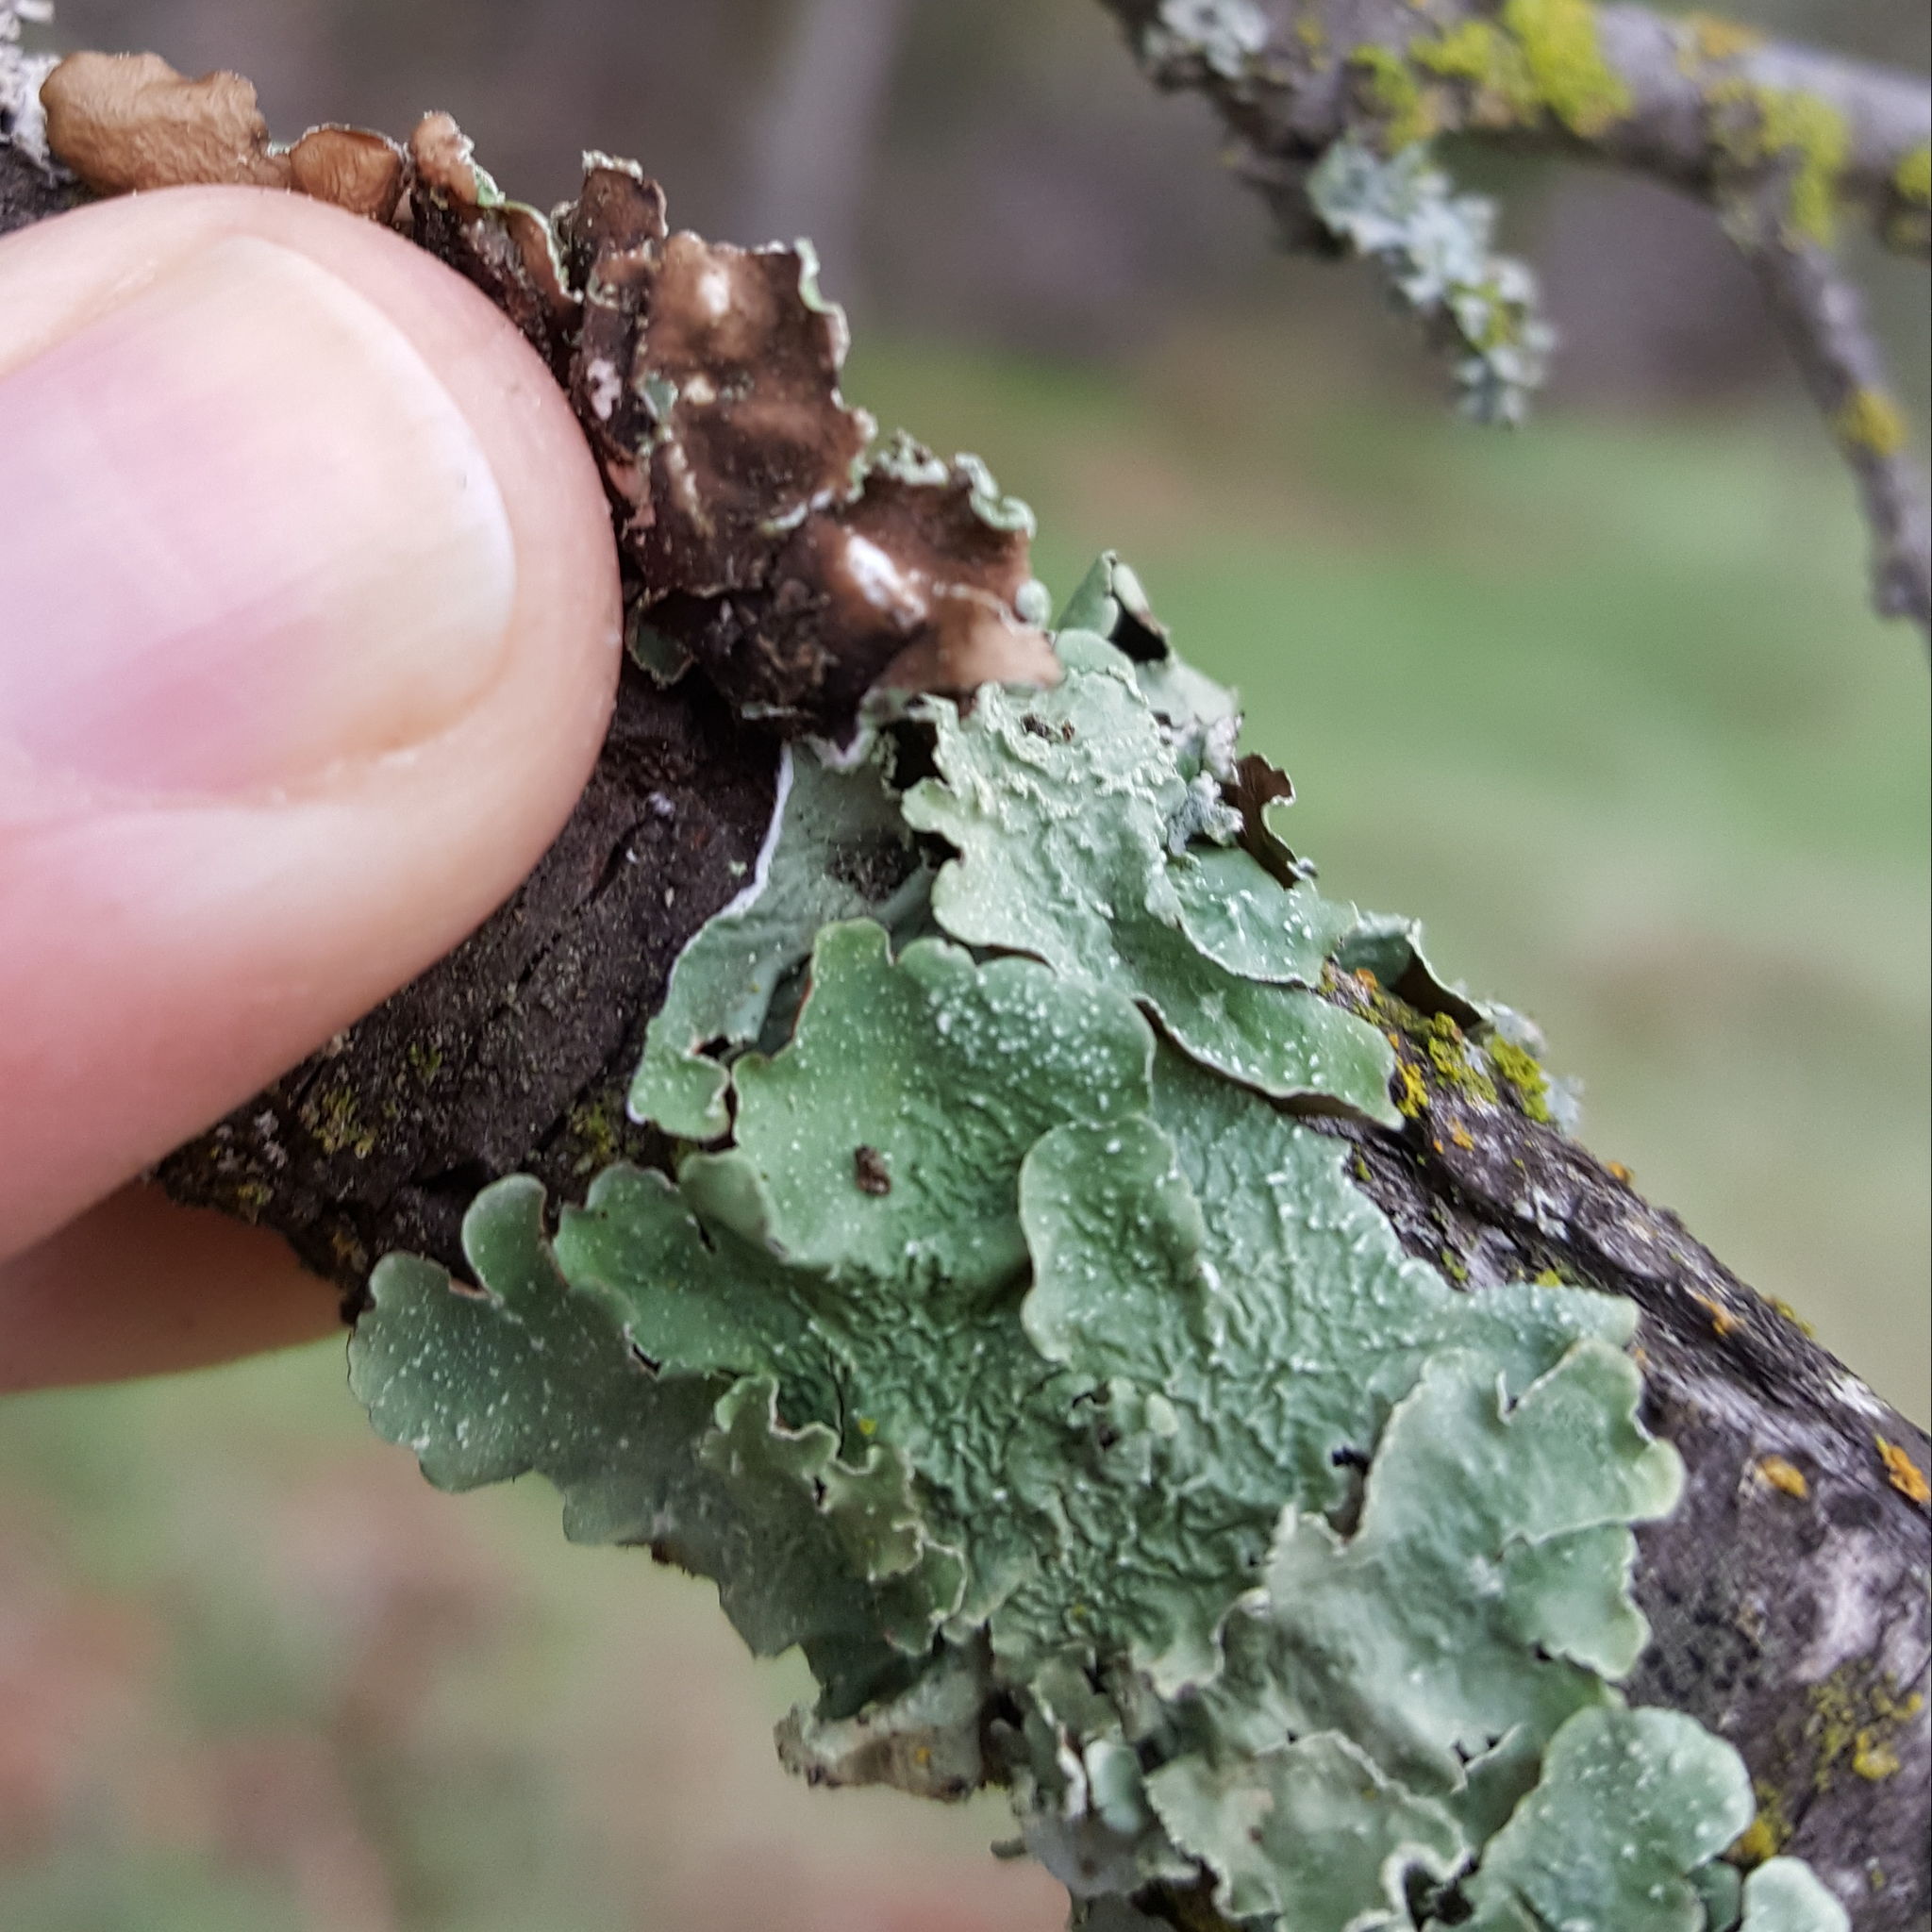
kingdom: Fungi
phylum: Ascomycota
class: Lecanoromycetes
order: Lecanorales
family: Parmeliaceae
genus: Flavopunctelia
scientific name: Flavopunctelia flaventior
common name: Speckled greenshield
